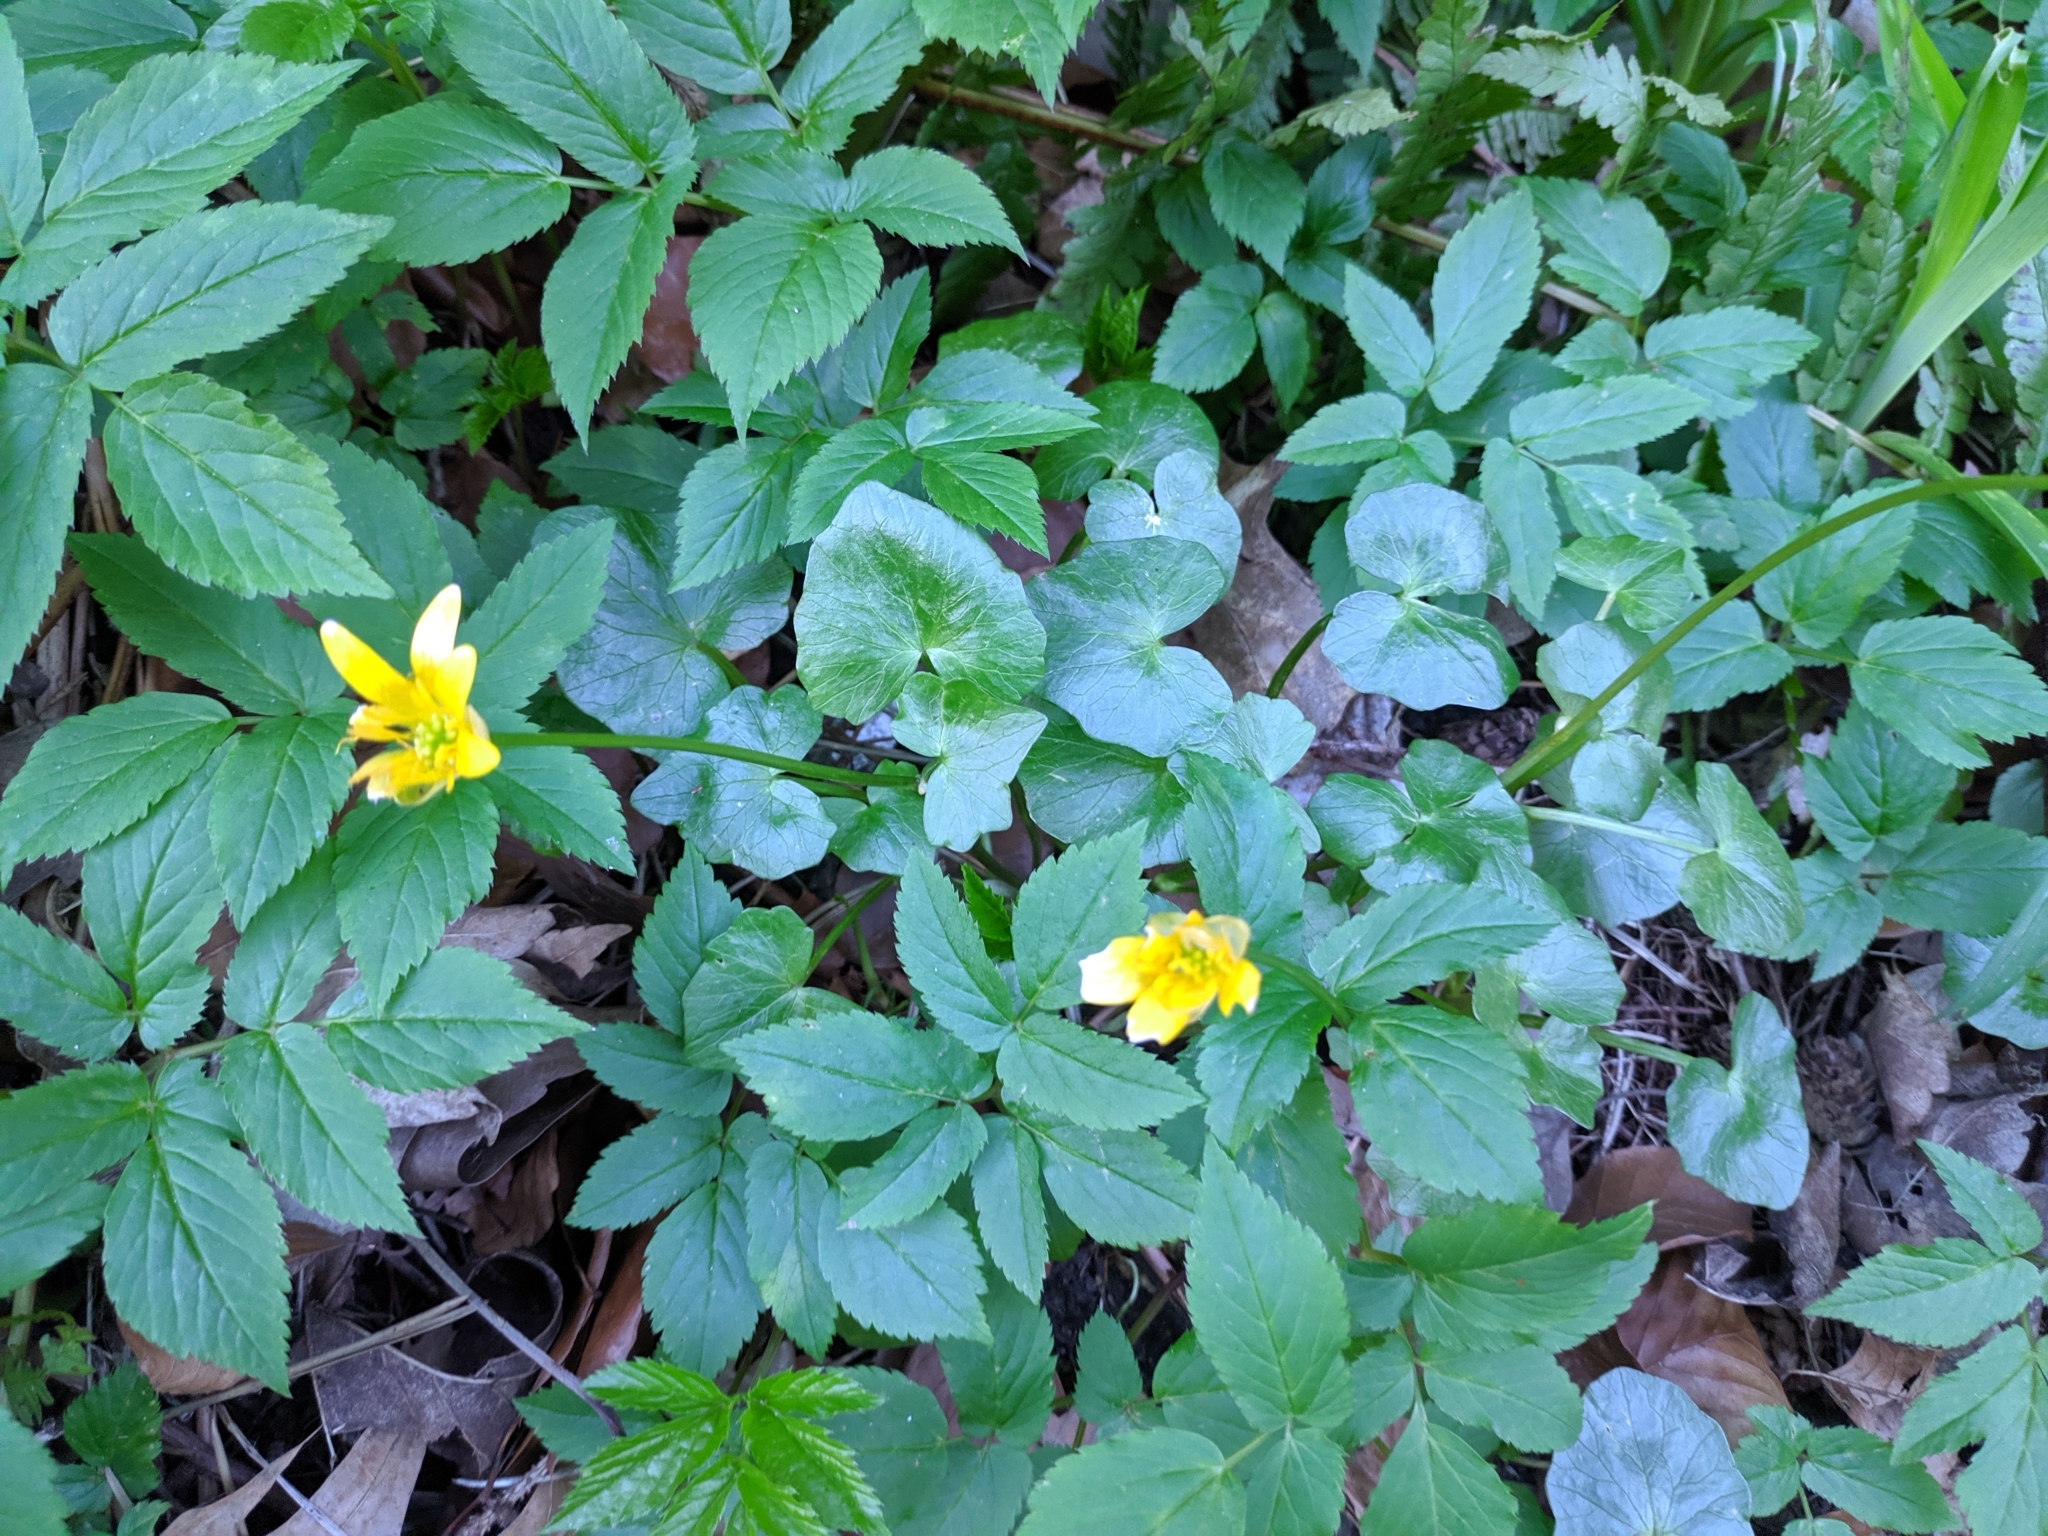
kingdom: Plantae
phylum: Tracheophyta
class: Magnoliopsida
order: Ranunculales
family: Ranunculaceae
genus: Ficaria
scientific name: Ficaria verna
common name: Lesser celandine
